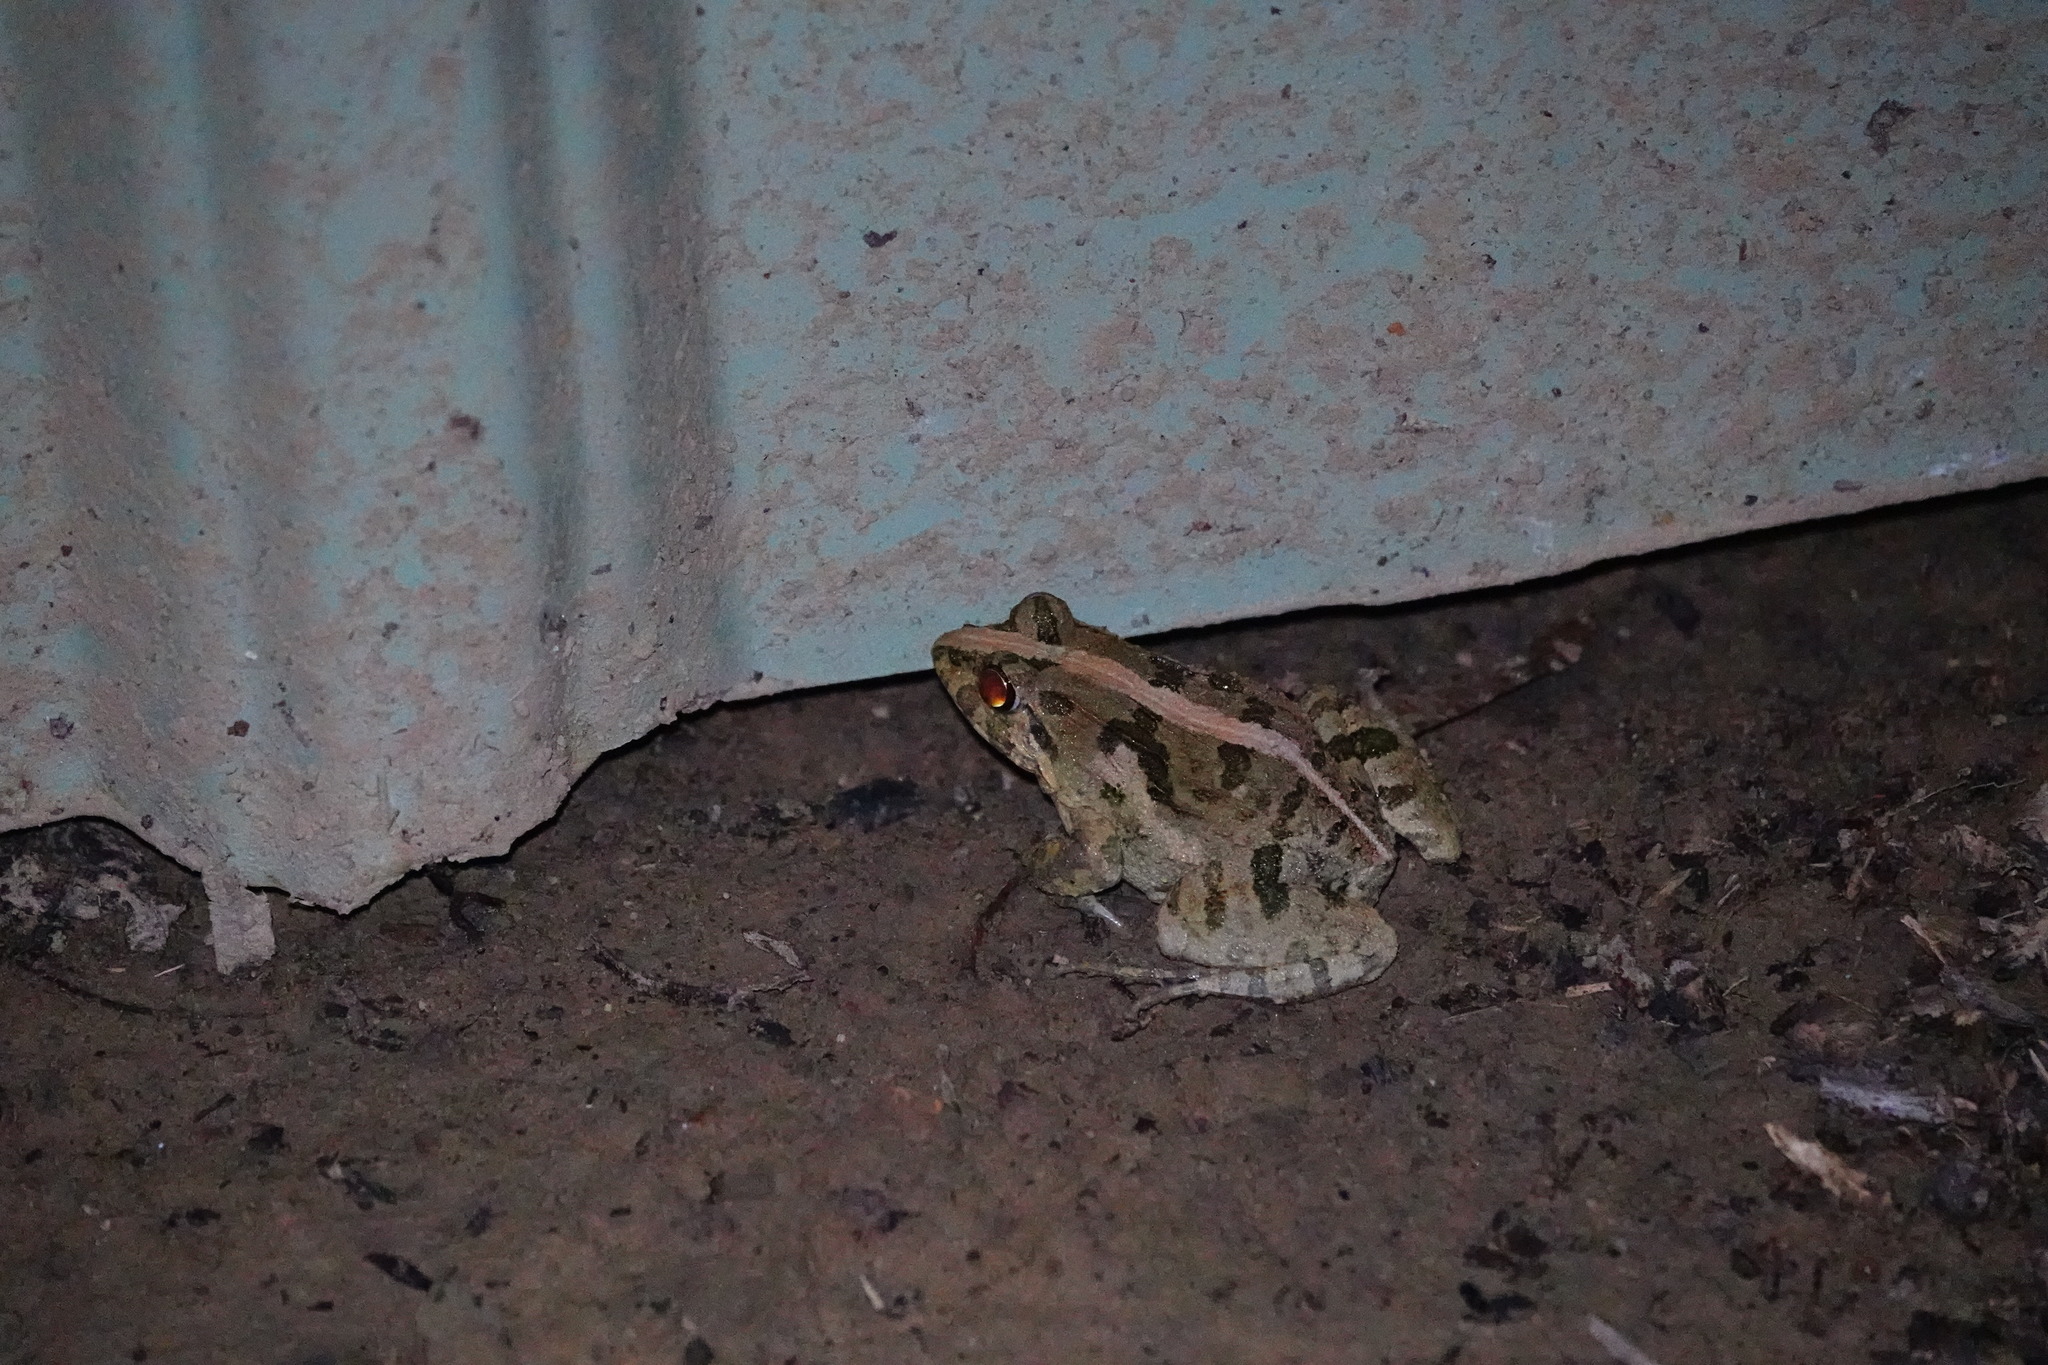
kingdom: Animalia
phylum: Chordata
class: Amphibia
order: Anura
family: Dicroglossidae
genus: Fejervarya
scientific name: Fejervarya limnocharis
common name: Asian grass frog/common pond frog/field frog/grass frog/indian rice frog
